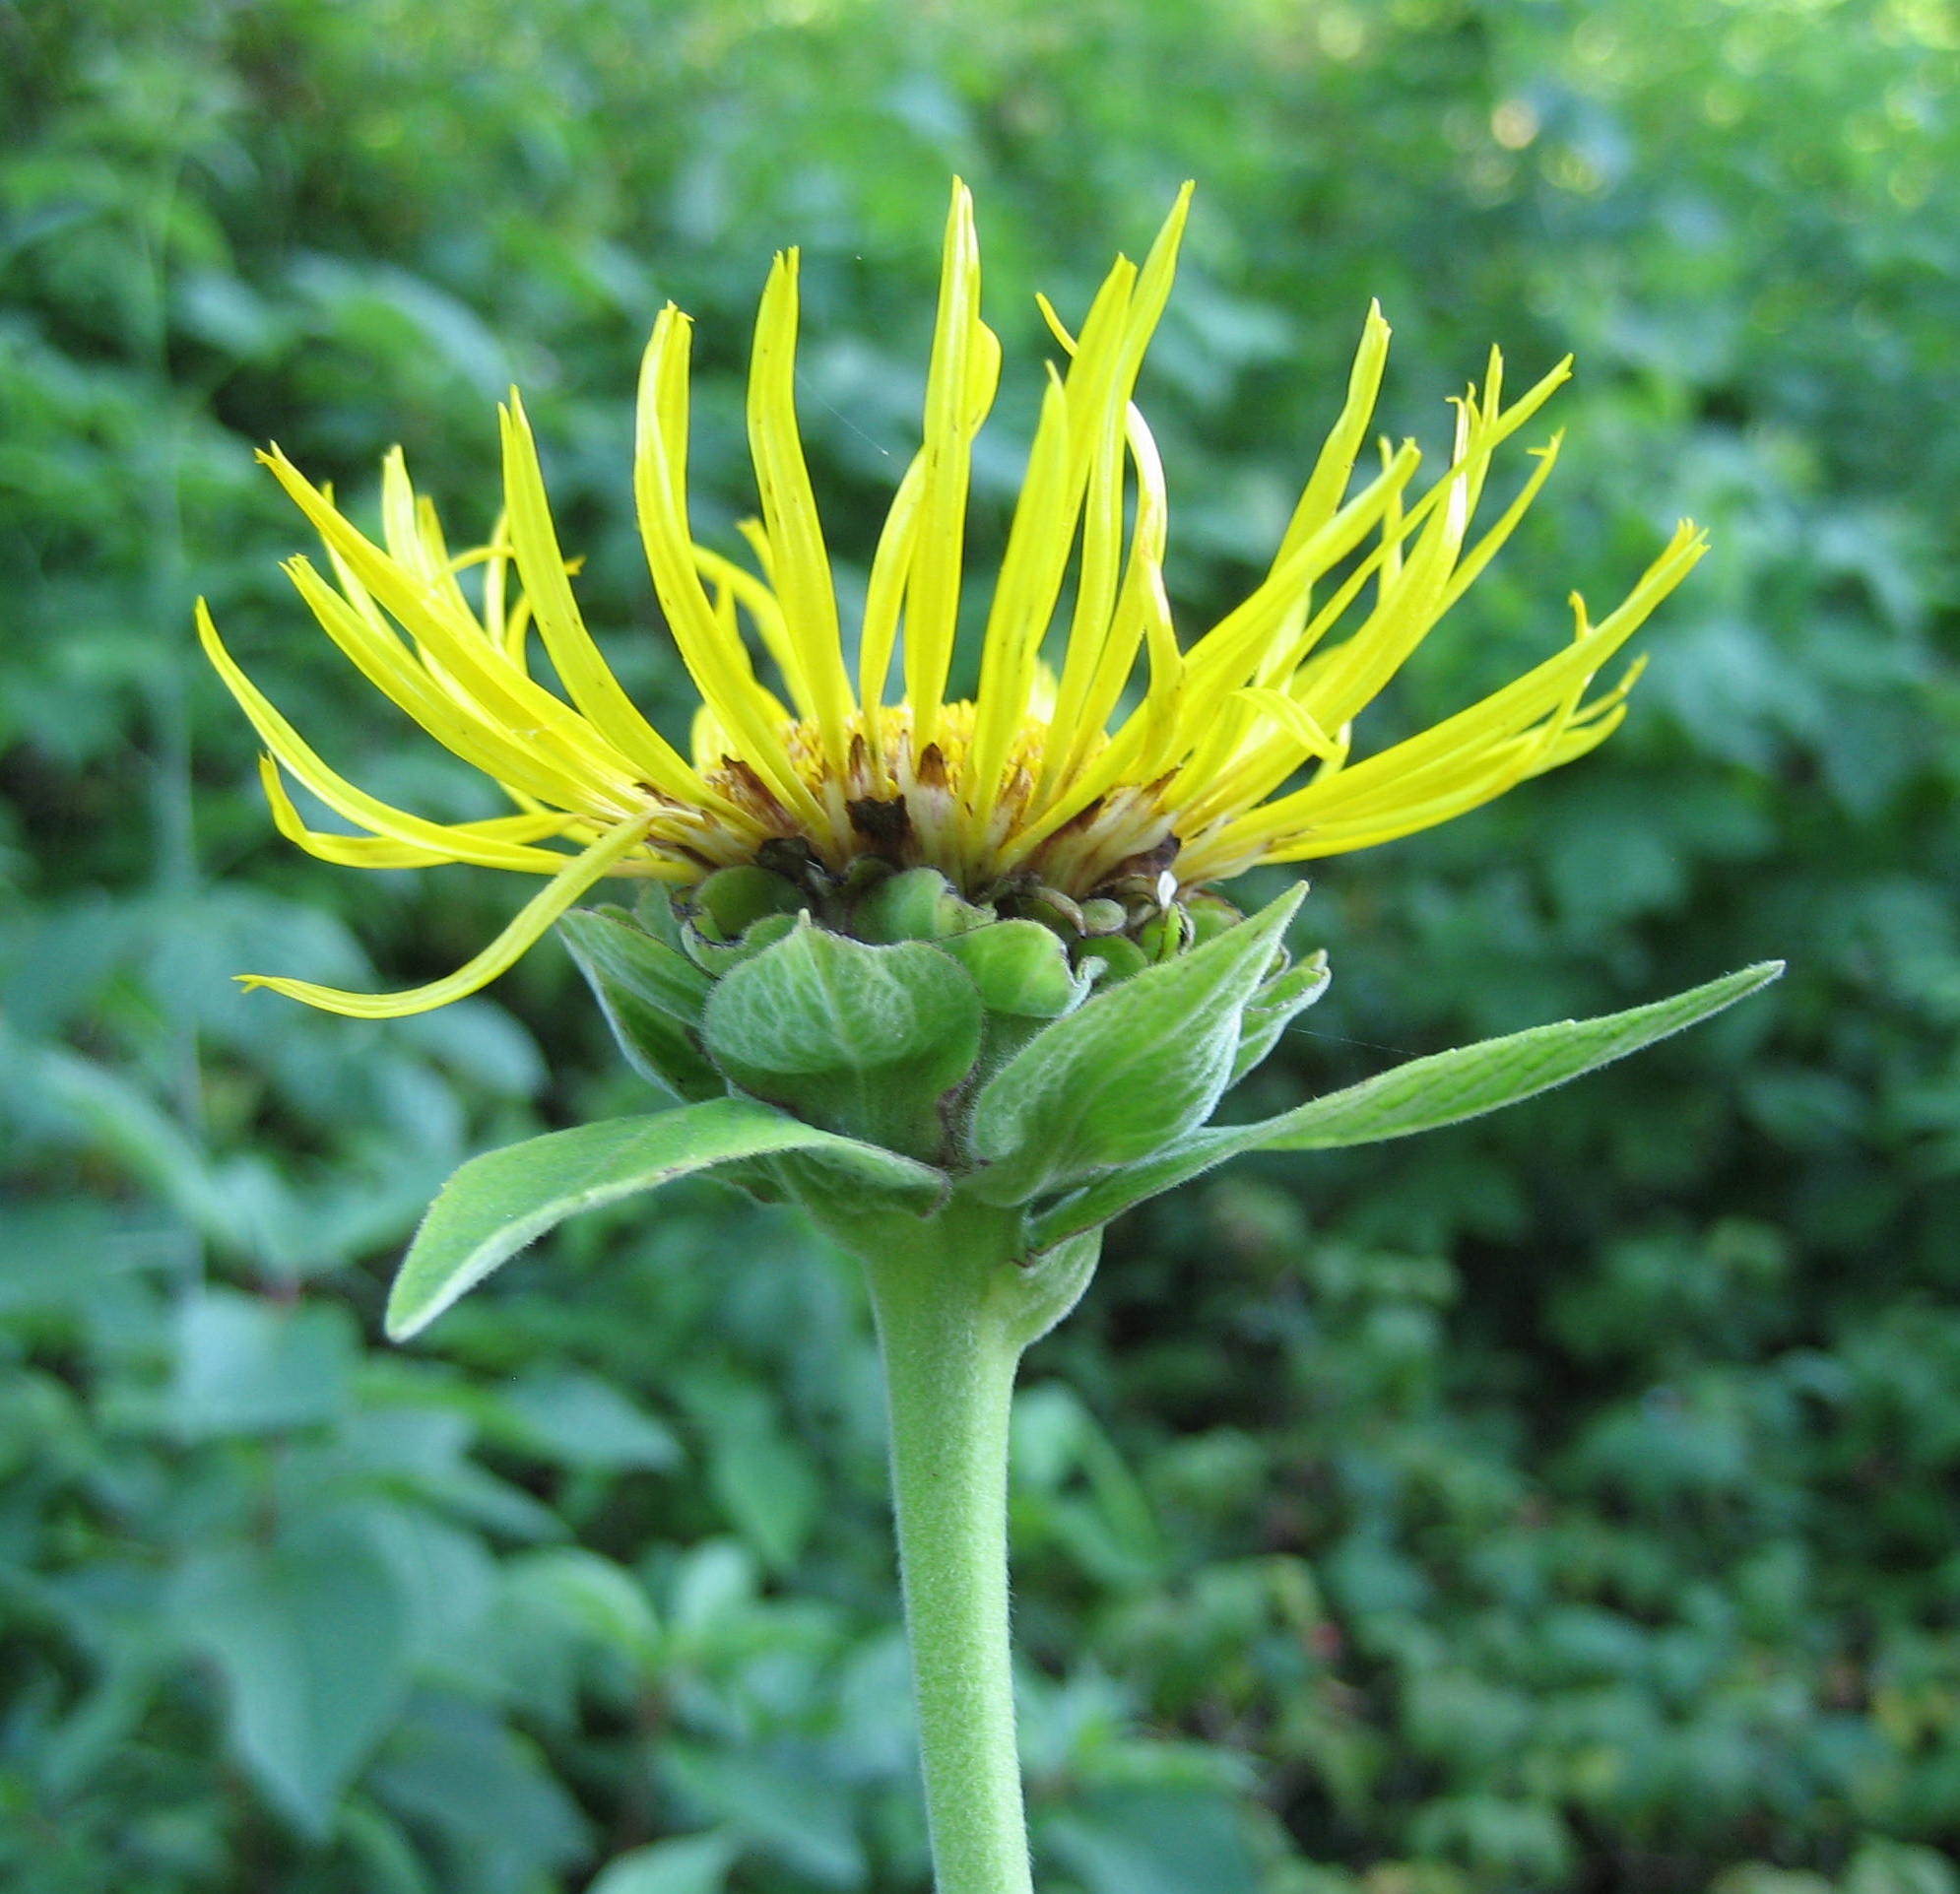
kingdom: Plantae
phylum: Tracheophyta
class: Magnoliopsida
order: Asterales
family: Asteraceae
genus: Inula
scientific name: Inula helenium
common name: Elecampane
